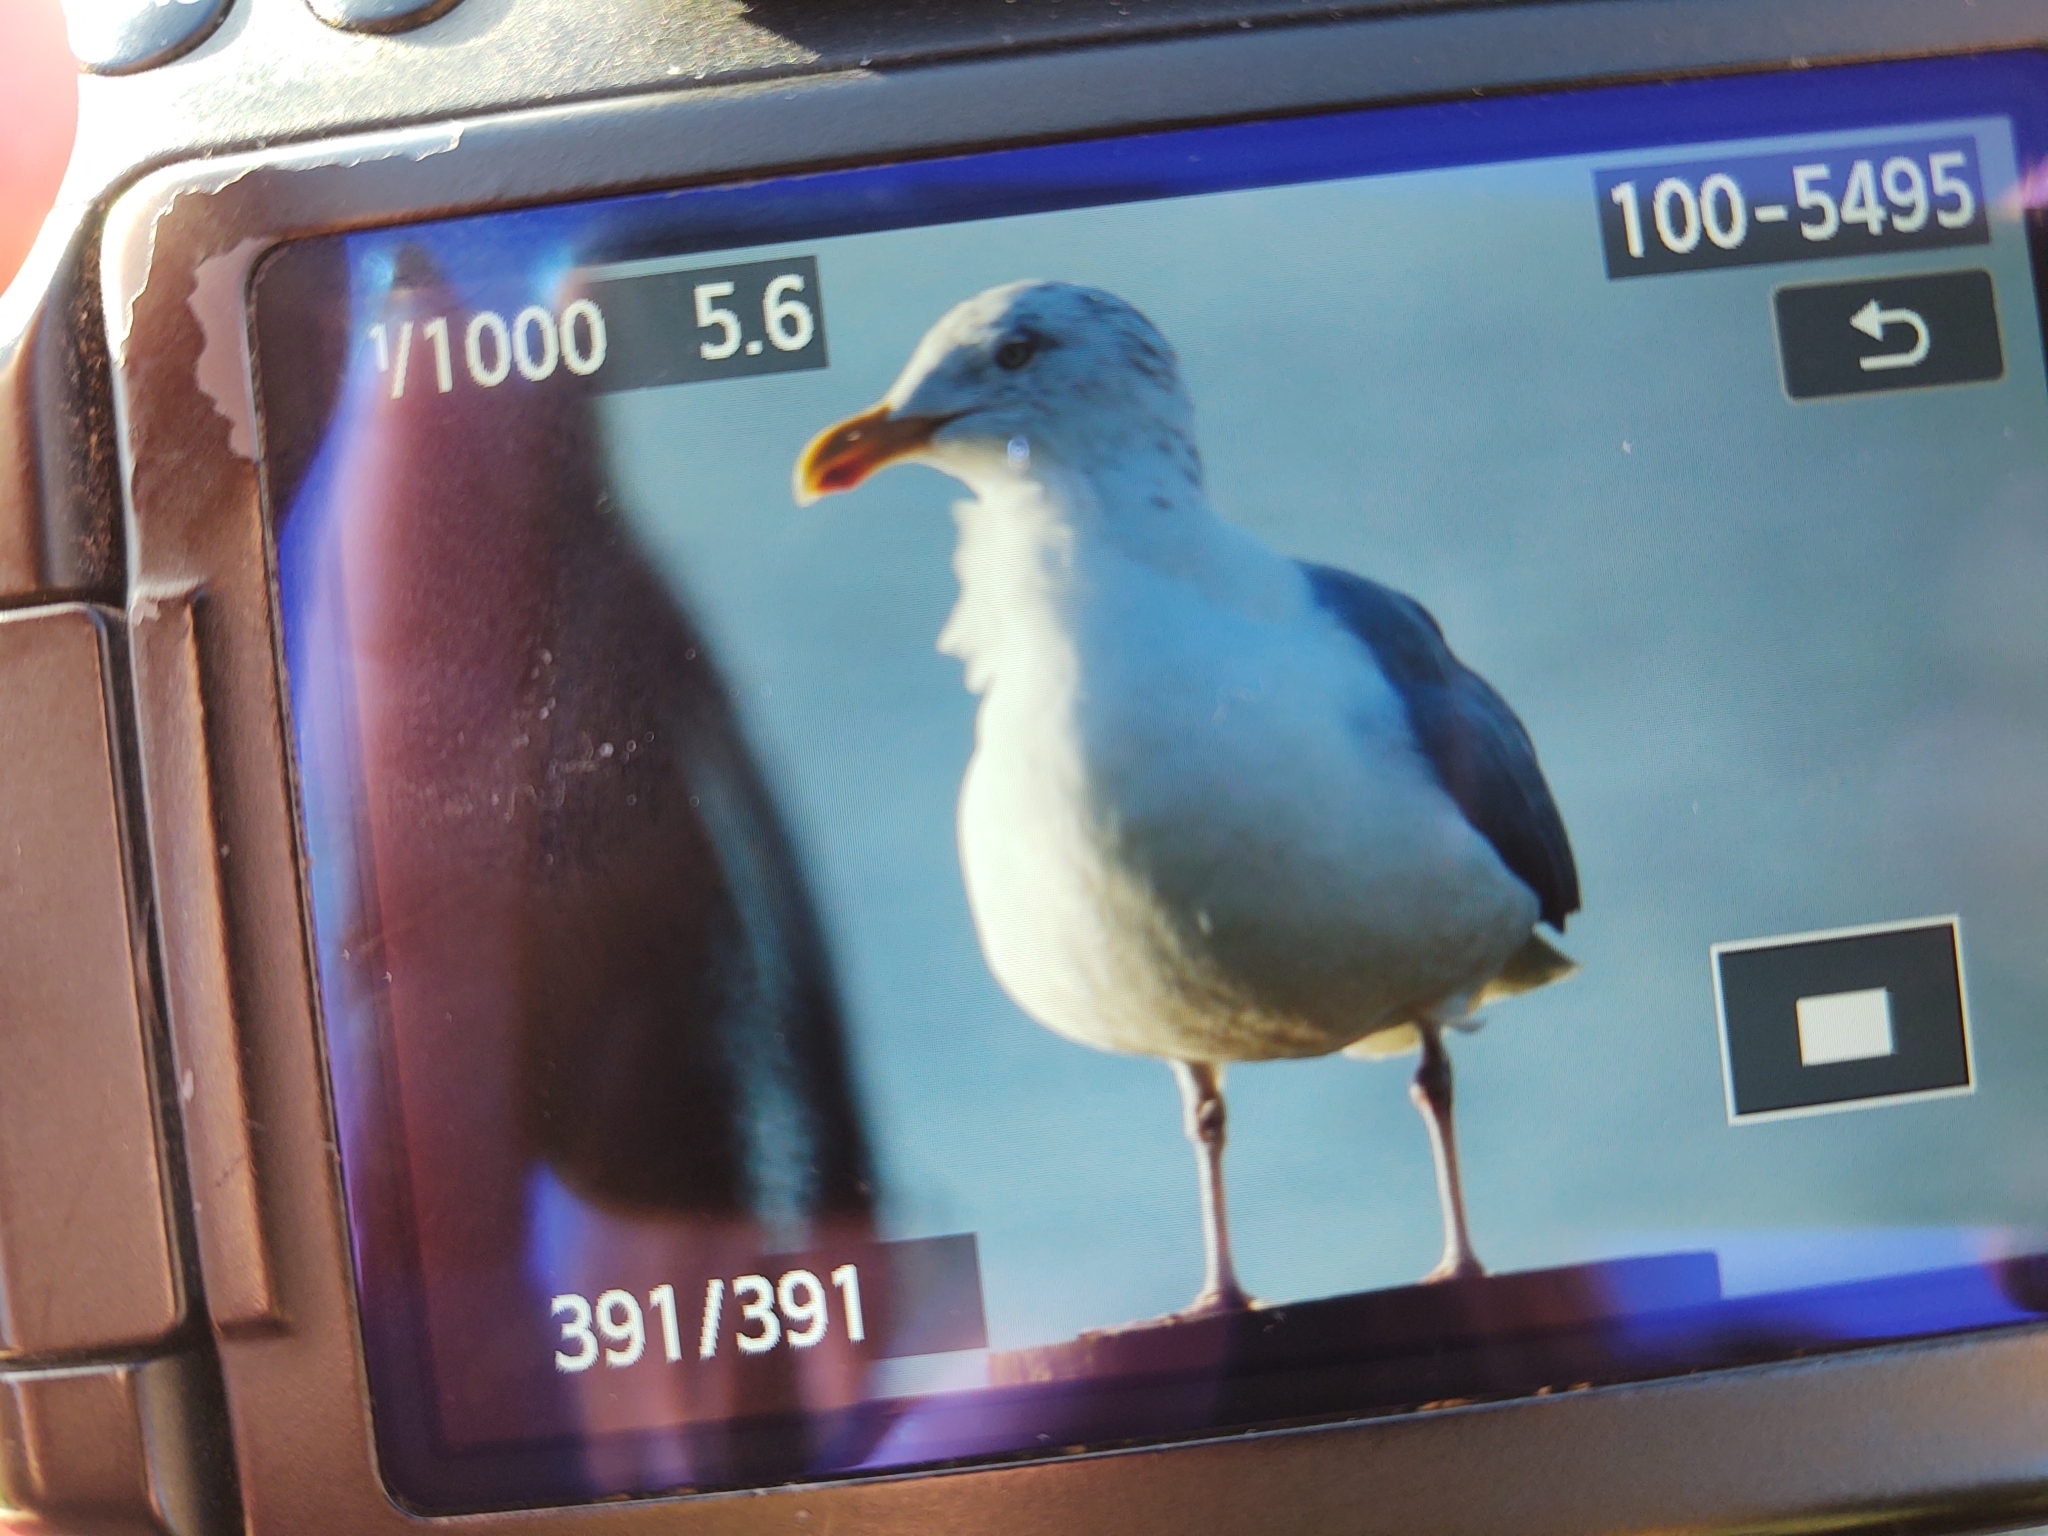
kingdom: Animalia
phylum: Chordata
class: Aves
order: Charadriiformes
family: Laridae
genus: Larus
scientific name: Larus argentatus
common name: Herring gull
